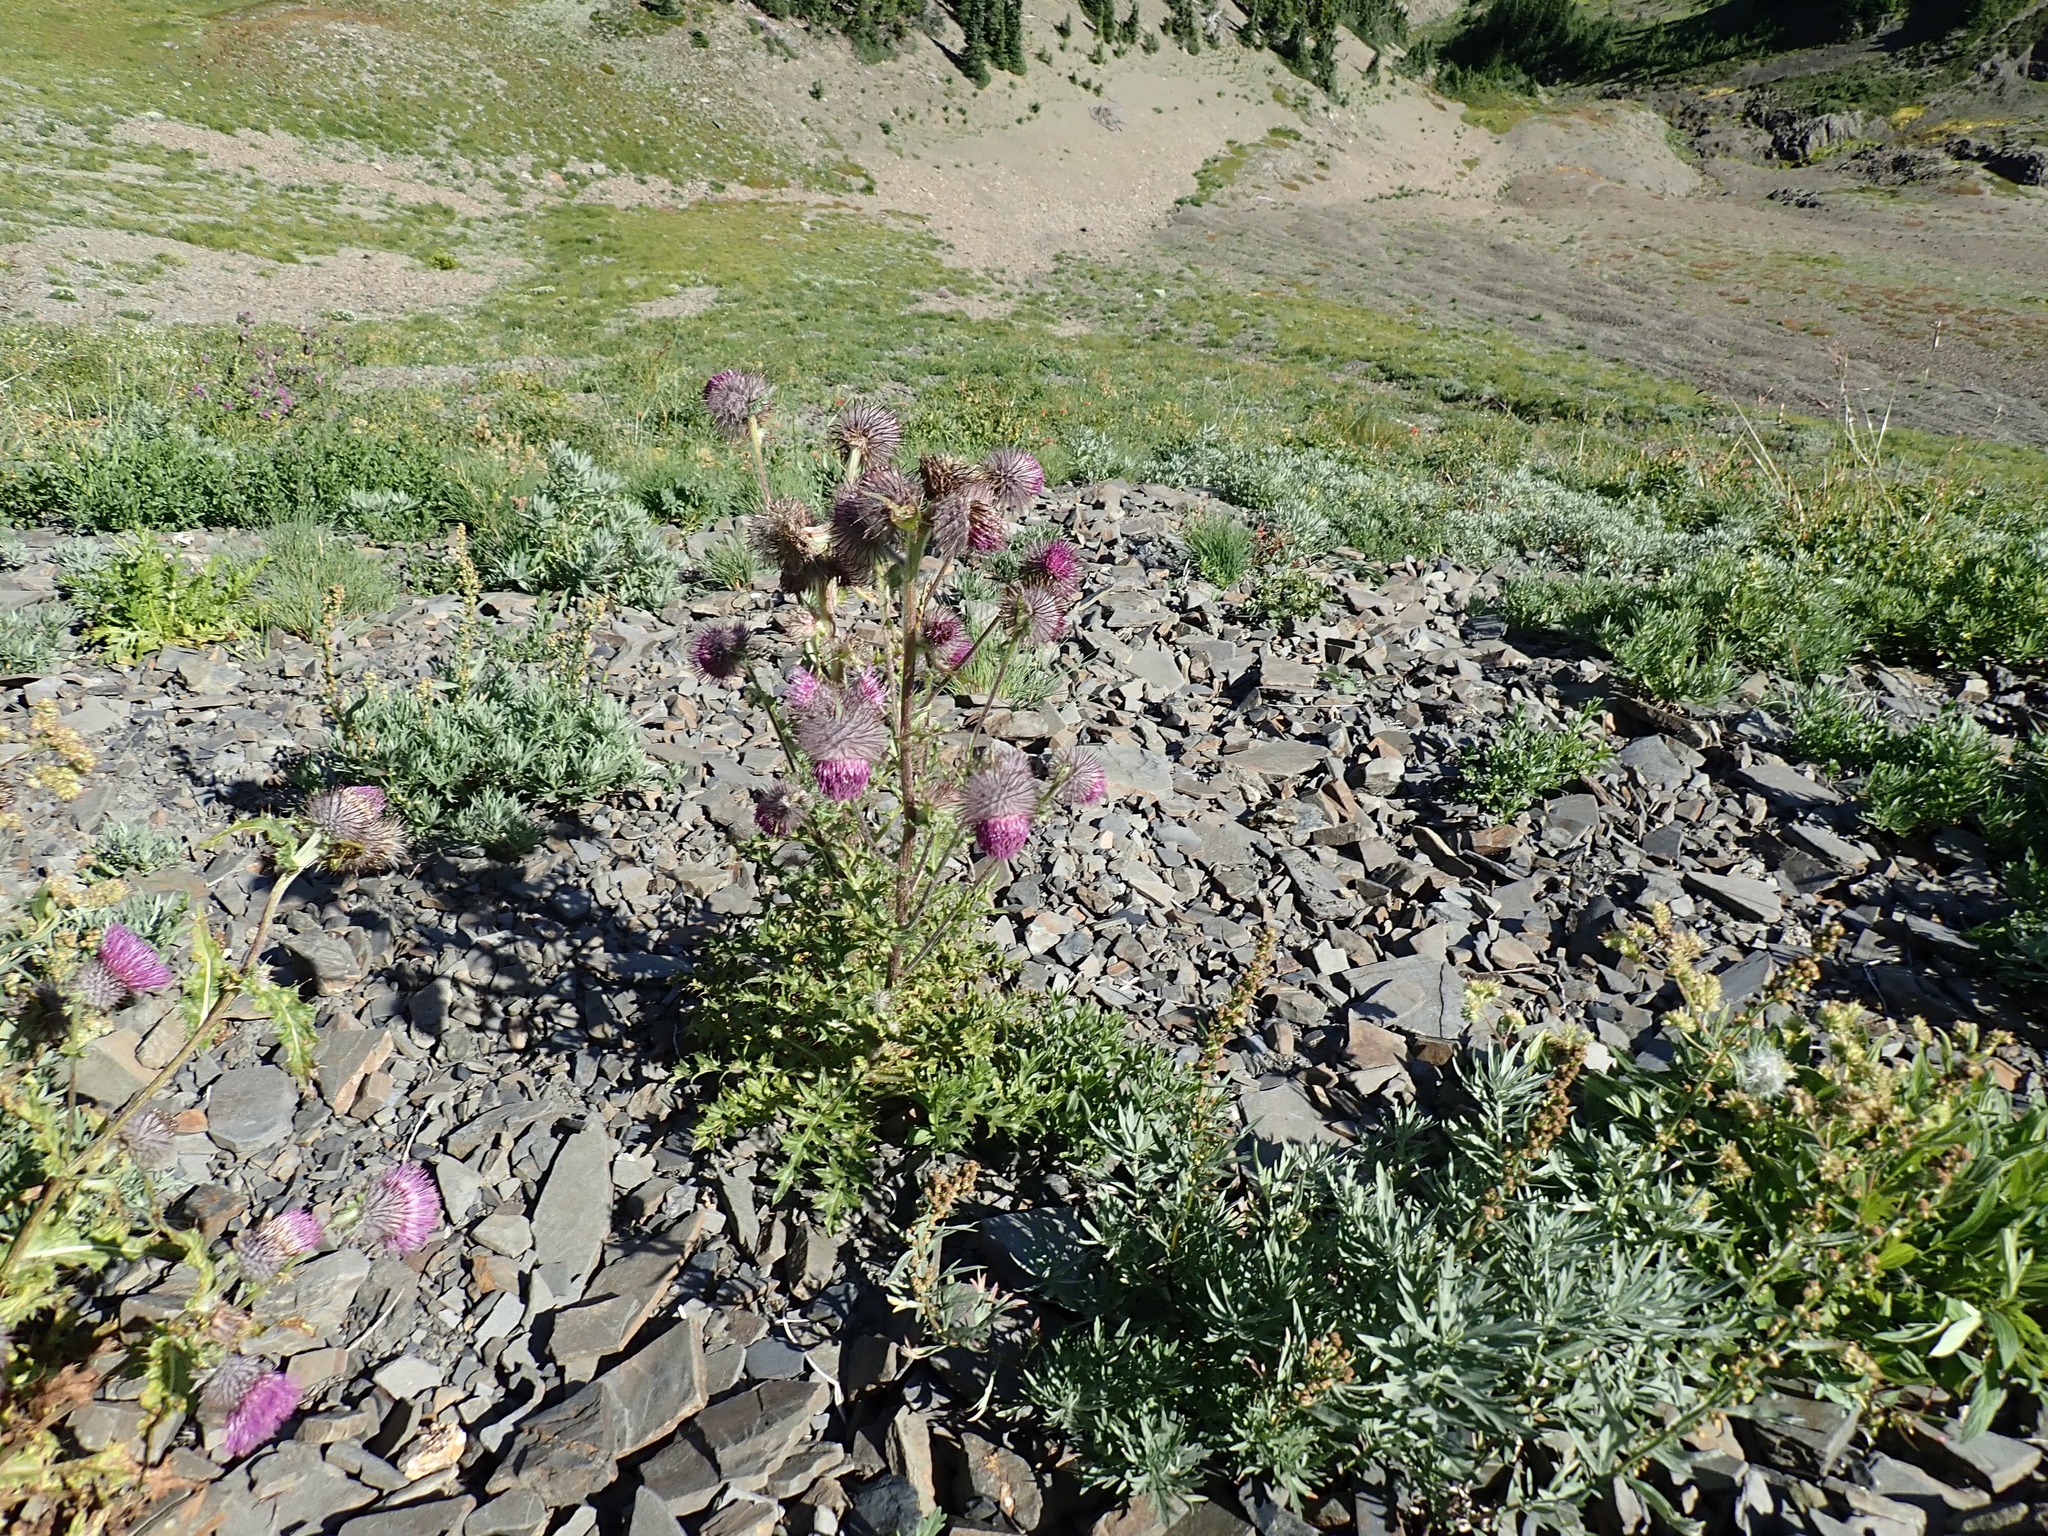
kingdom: Plantae
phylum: Tracheophyta
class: Magnoliopsida
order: Asterales
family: Asteraceae
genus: Cirsium
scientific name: Cirsium edule
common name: Indian thistle
